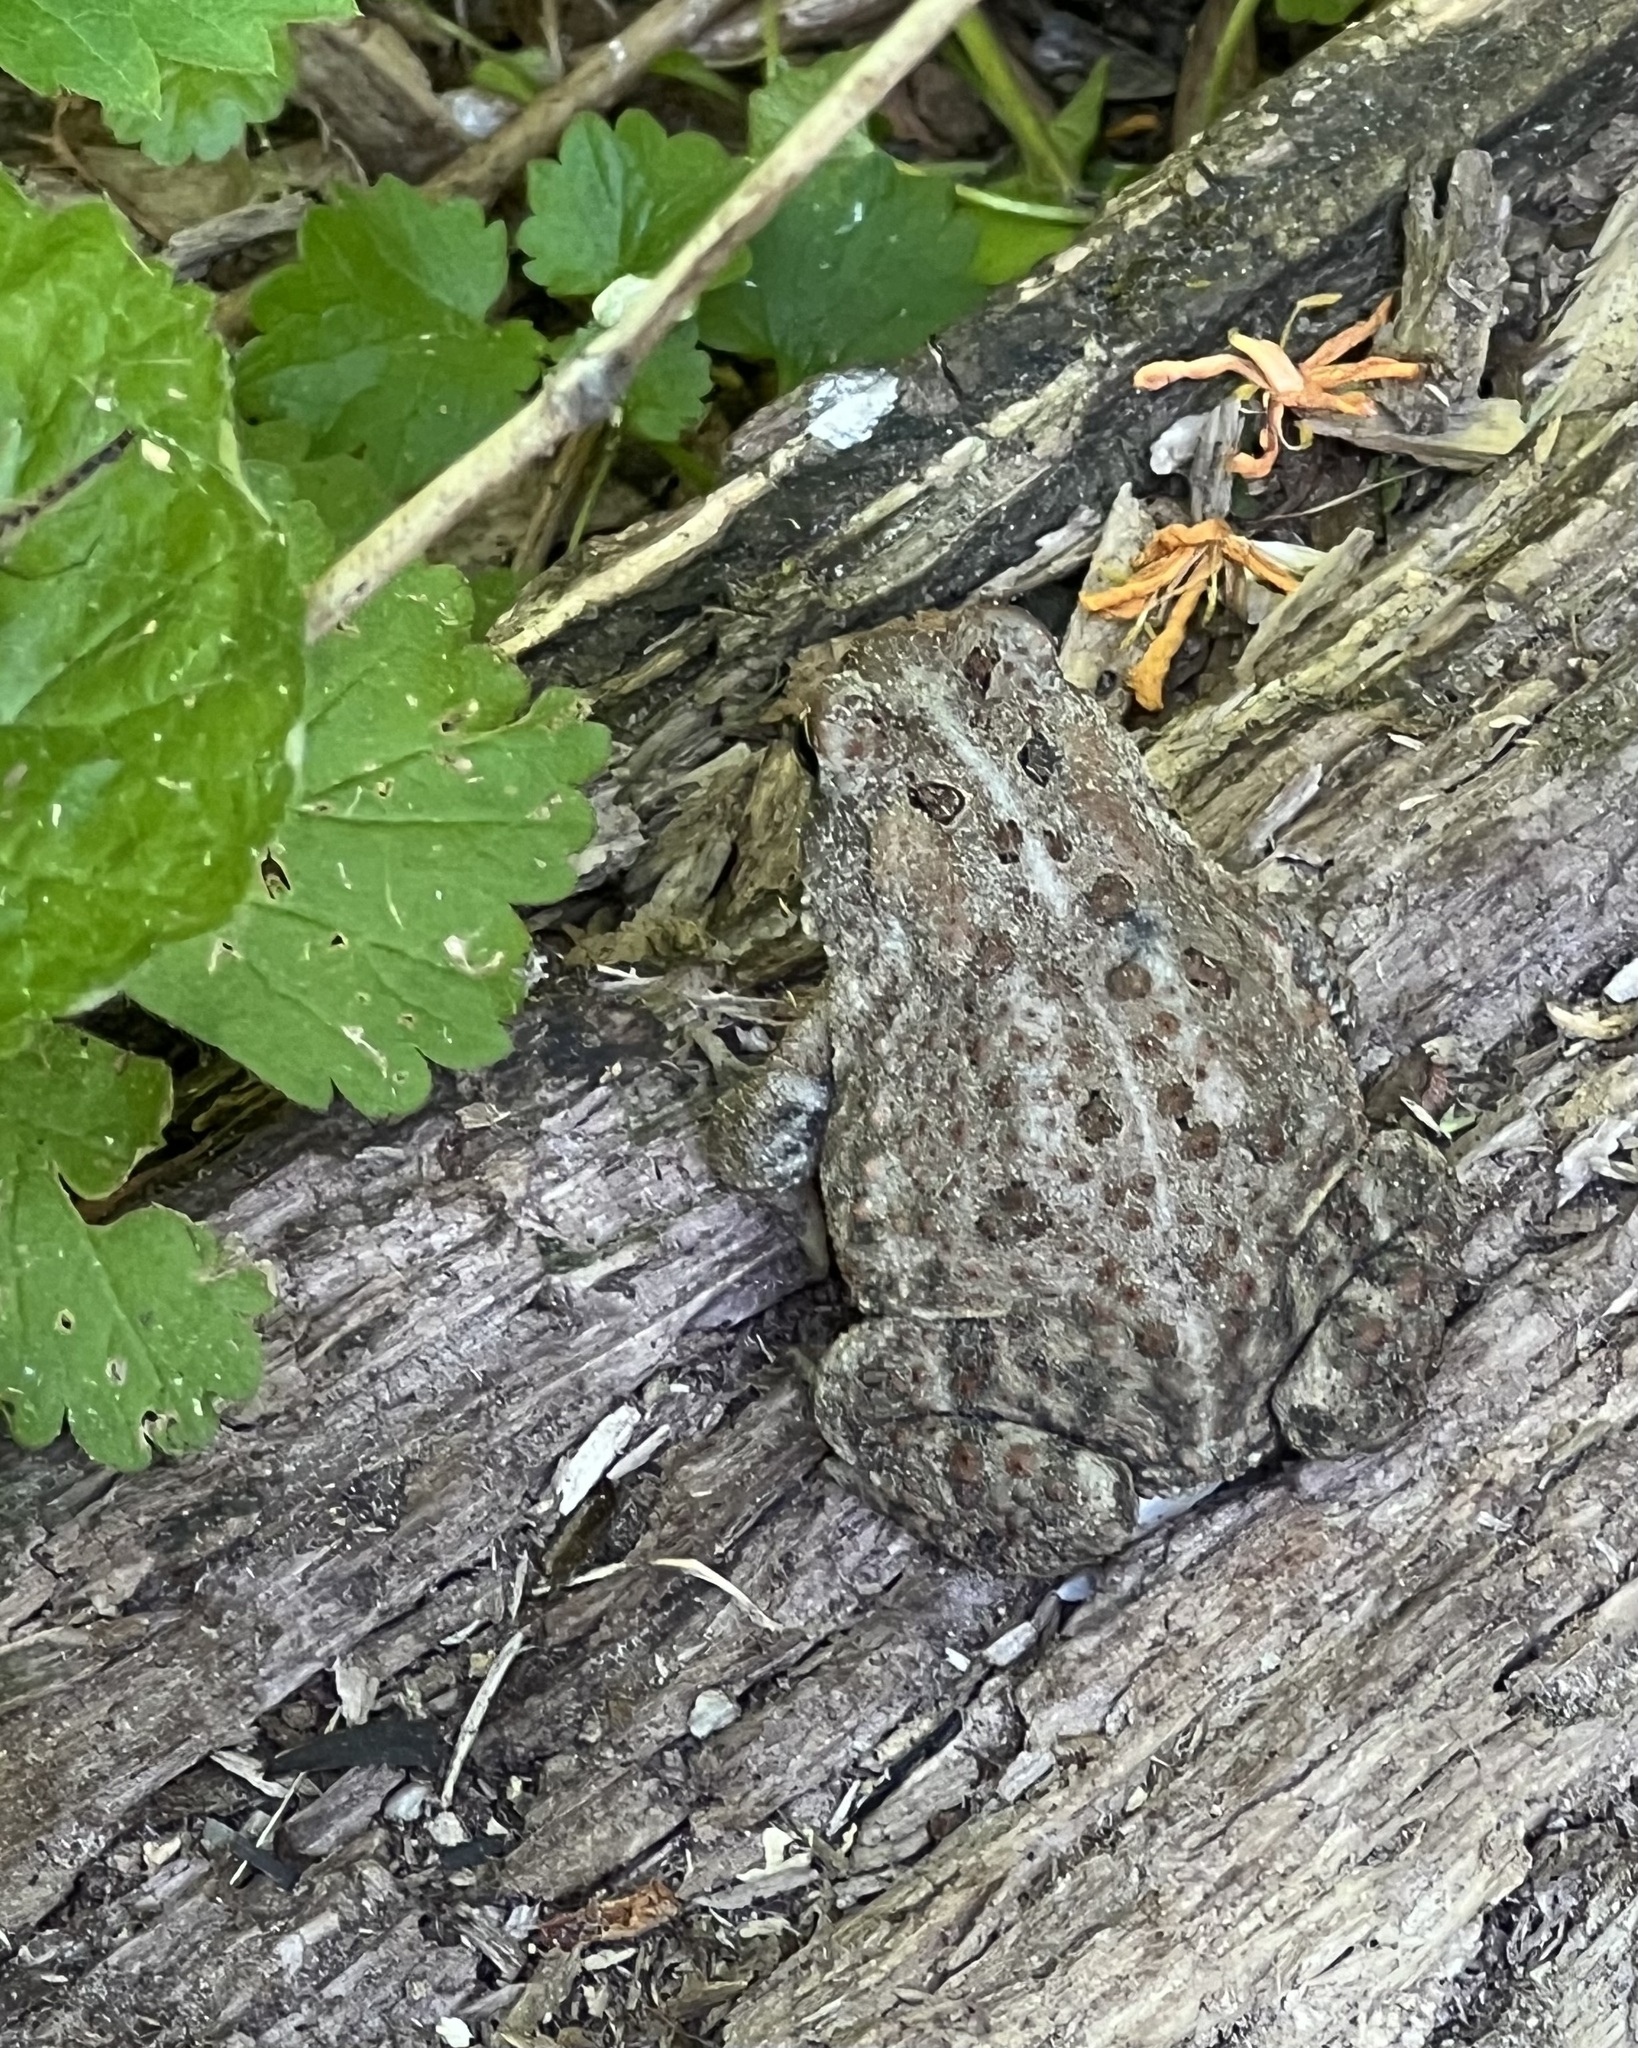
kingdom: Animalia
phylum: Chordata
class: Amphibia
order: Anura
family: Bufonidae
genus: Anaxyrus
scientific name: Anaxyrus americanus
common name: American toad
